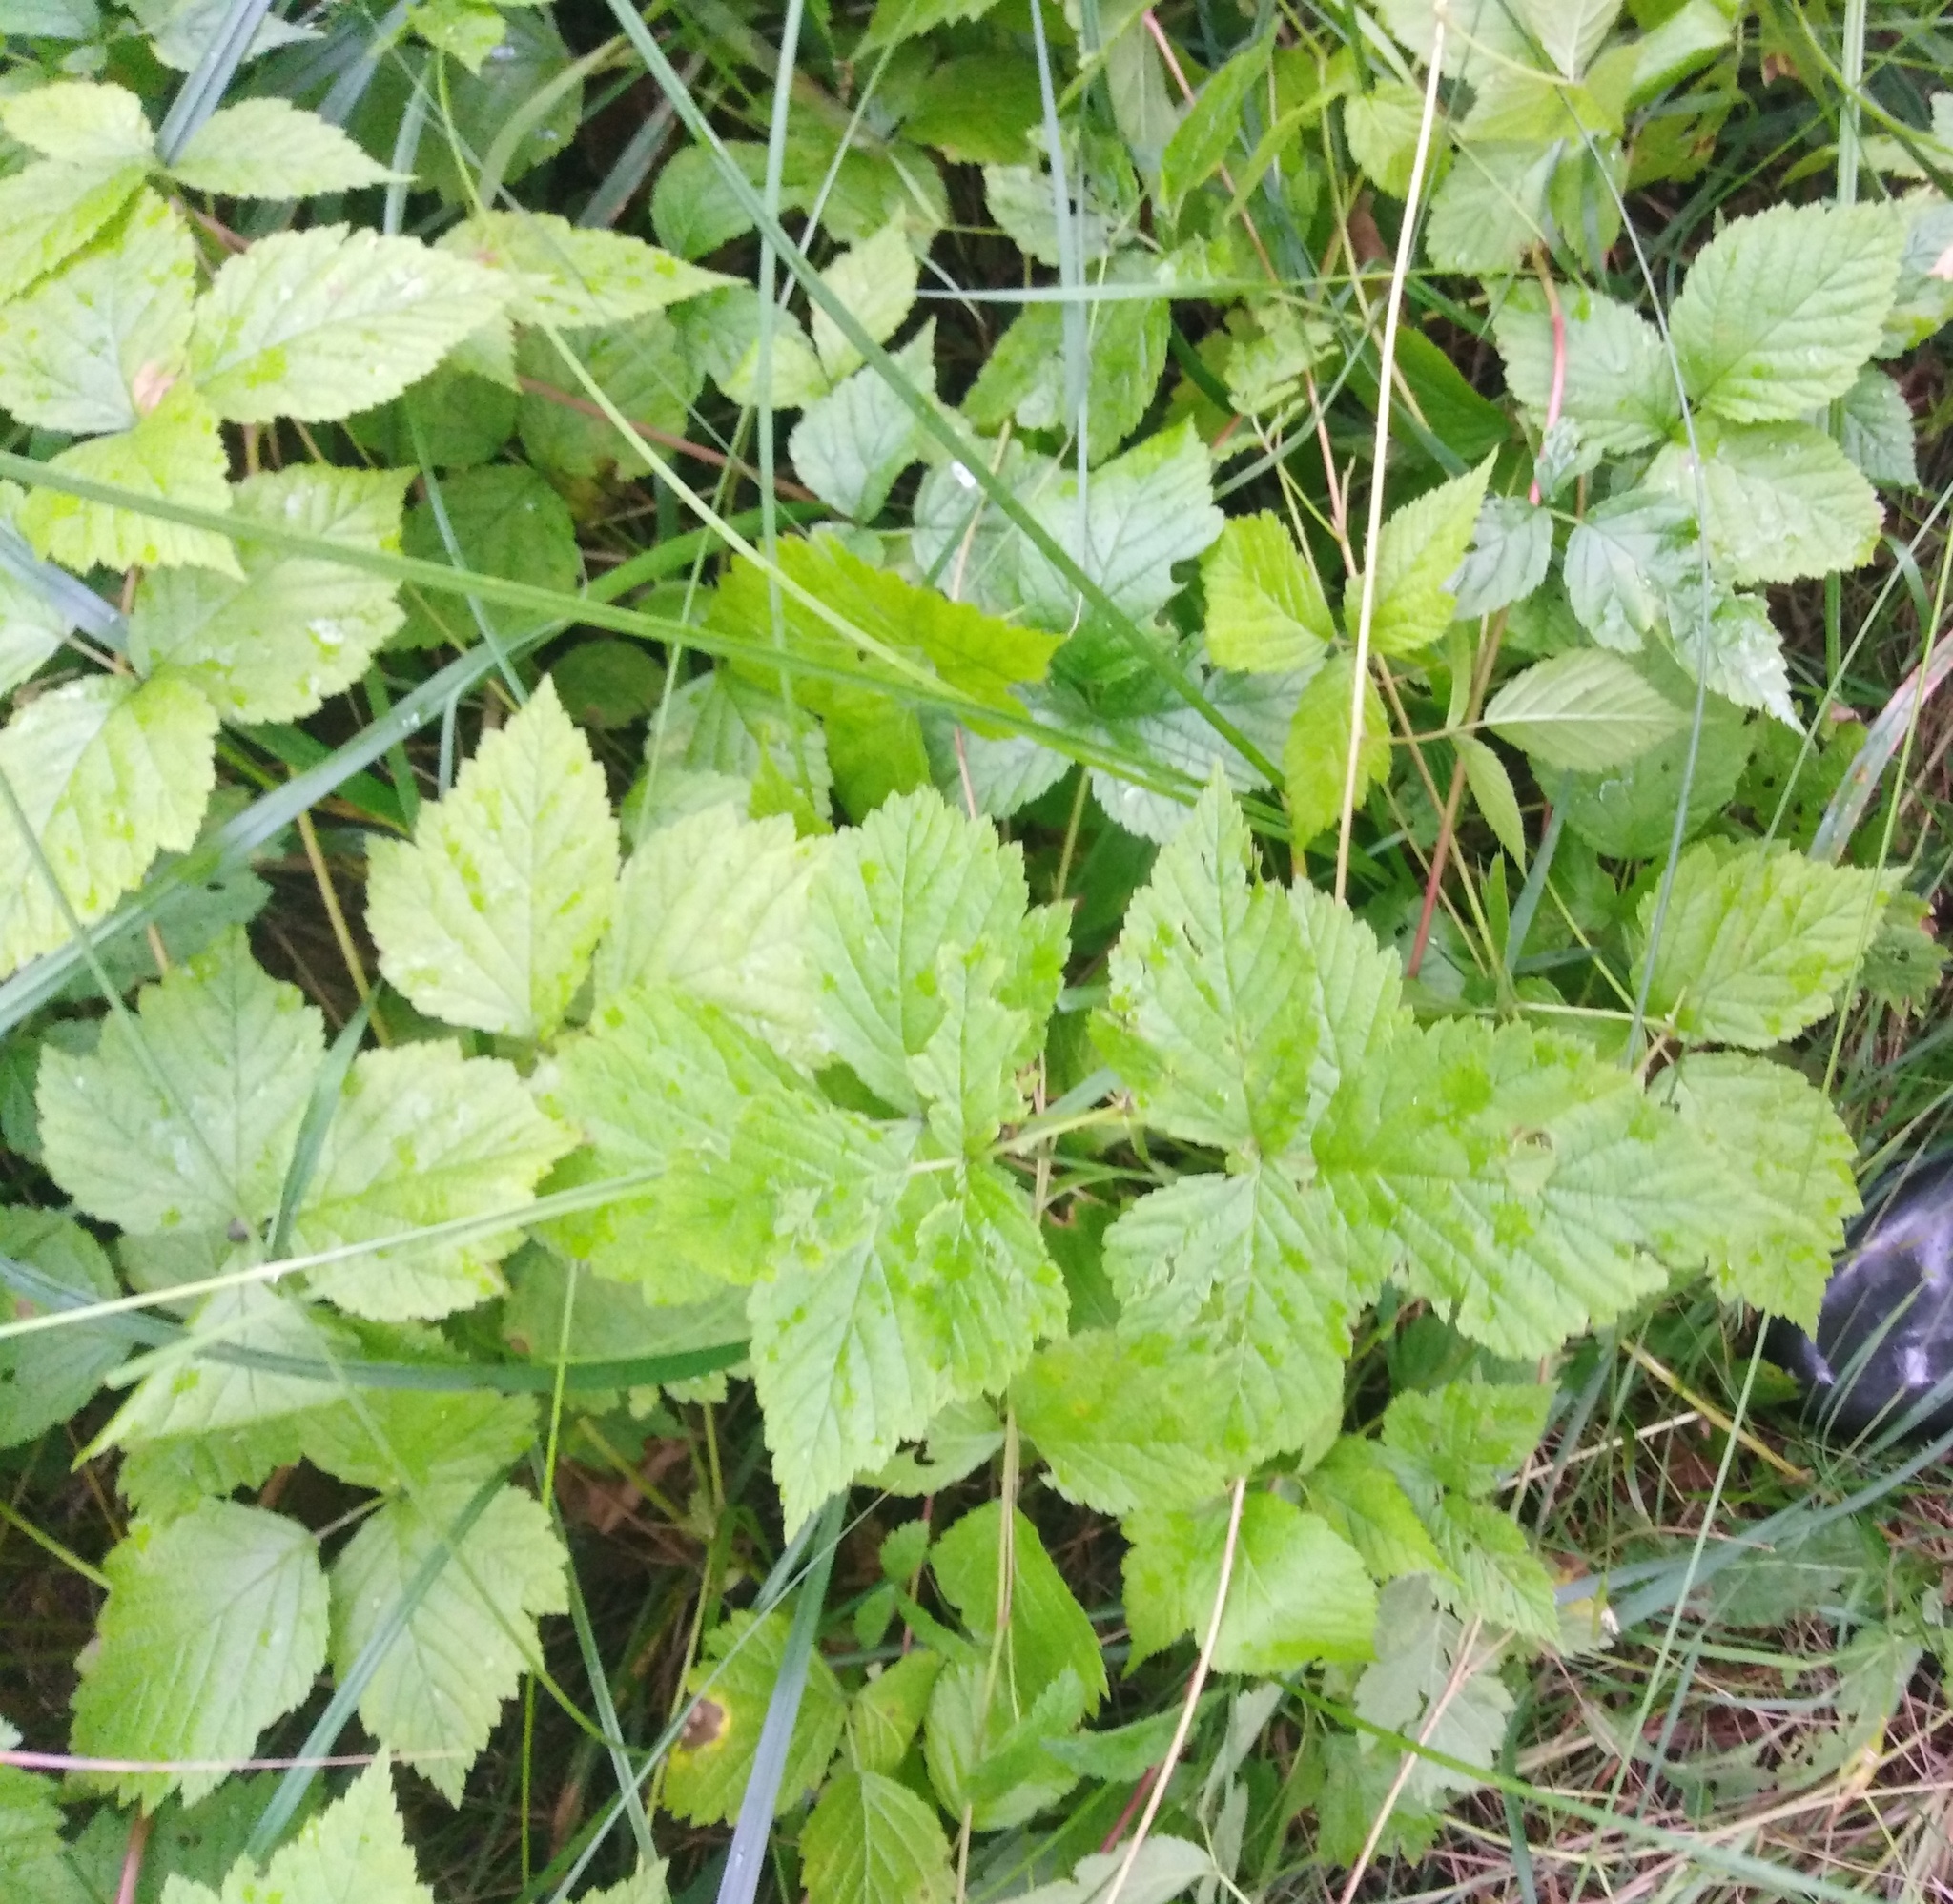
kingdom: Plantae
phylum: Tracheophyta
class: Magnoliopsida
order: Rosales
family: Rosaceae
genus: Rubus
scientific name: Rubus caesius
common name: Dewberry
